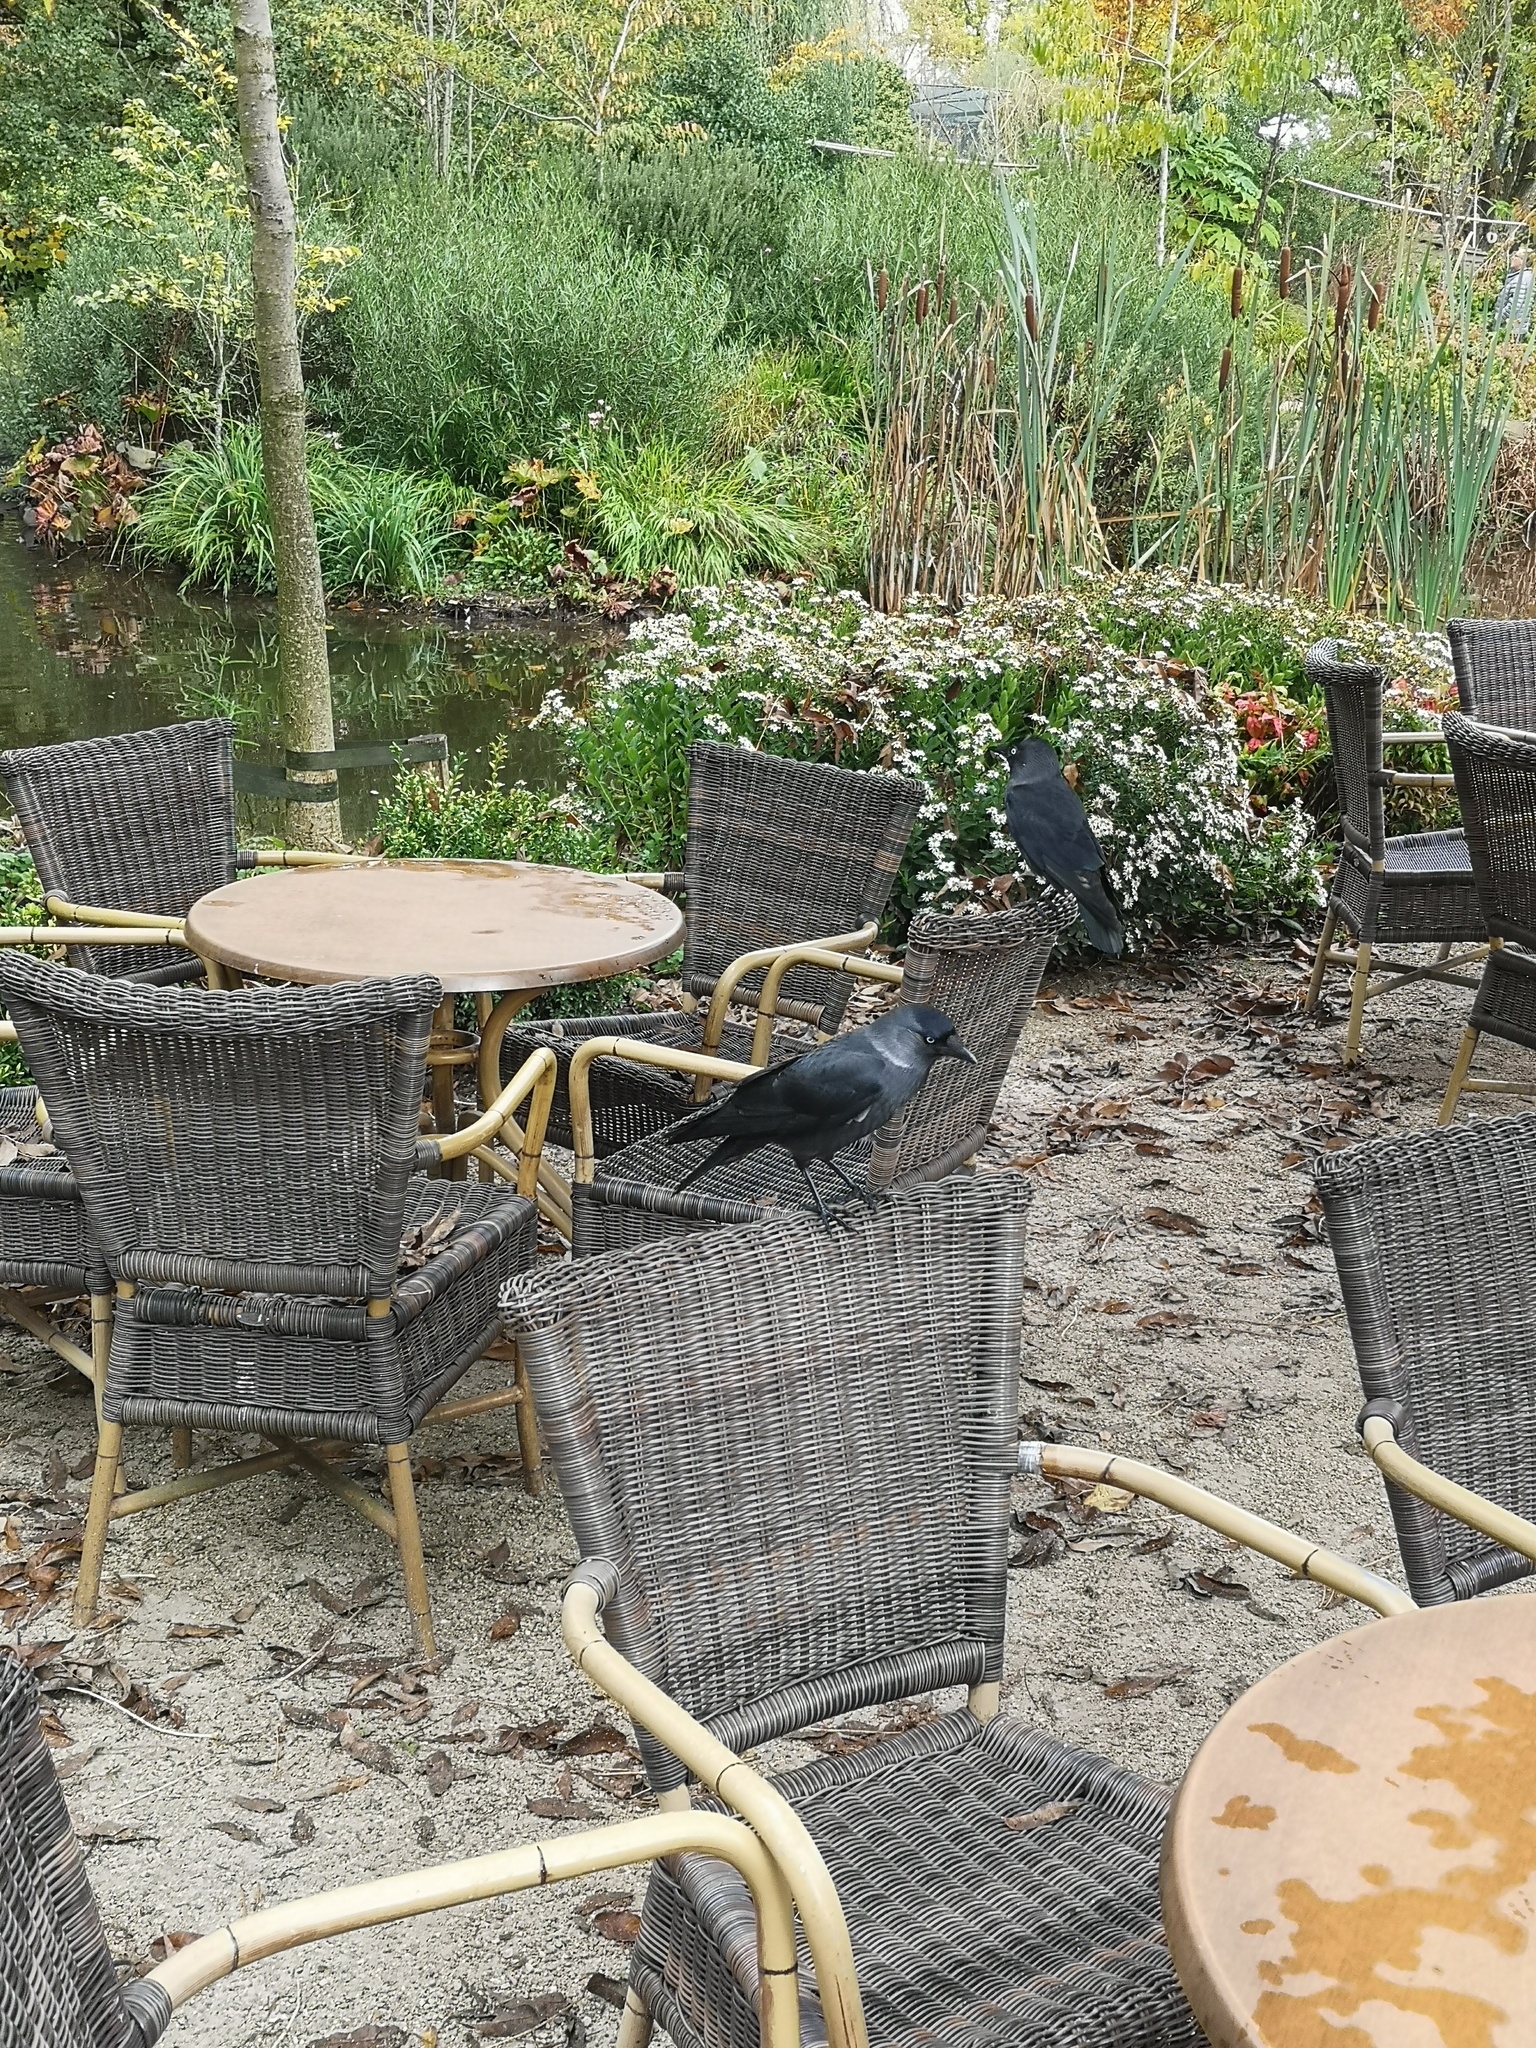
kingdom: Animalia
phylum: Chordata
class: Aves
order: Passeriformes
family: Corvidae
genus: Coloeus
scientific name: Coloeus monedula
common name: Western jackdaw
